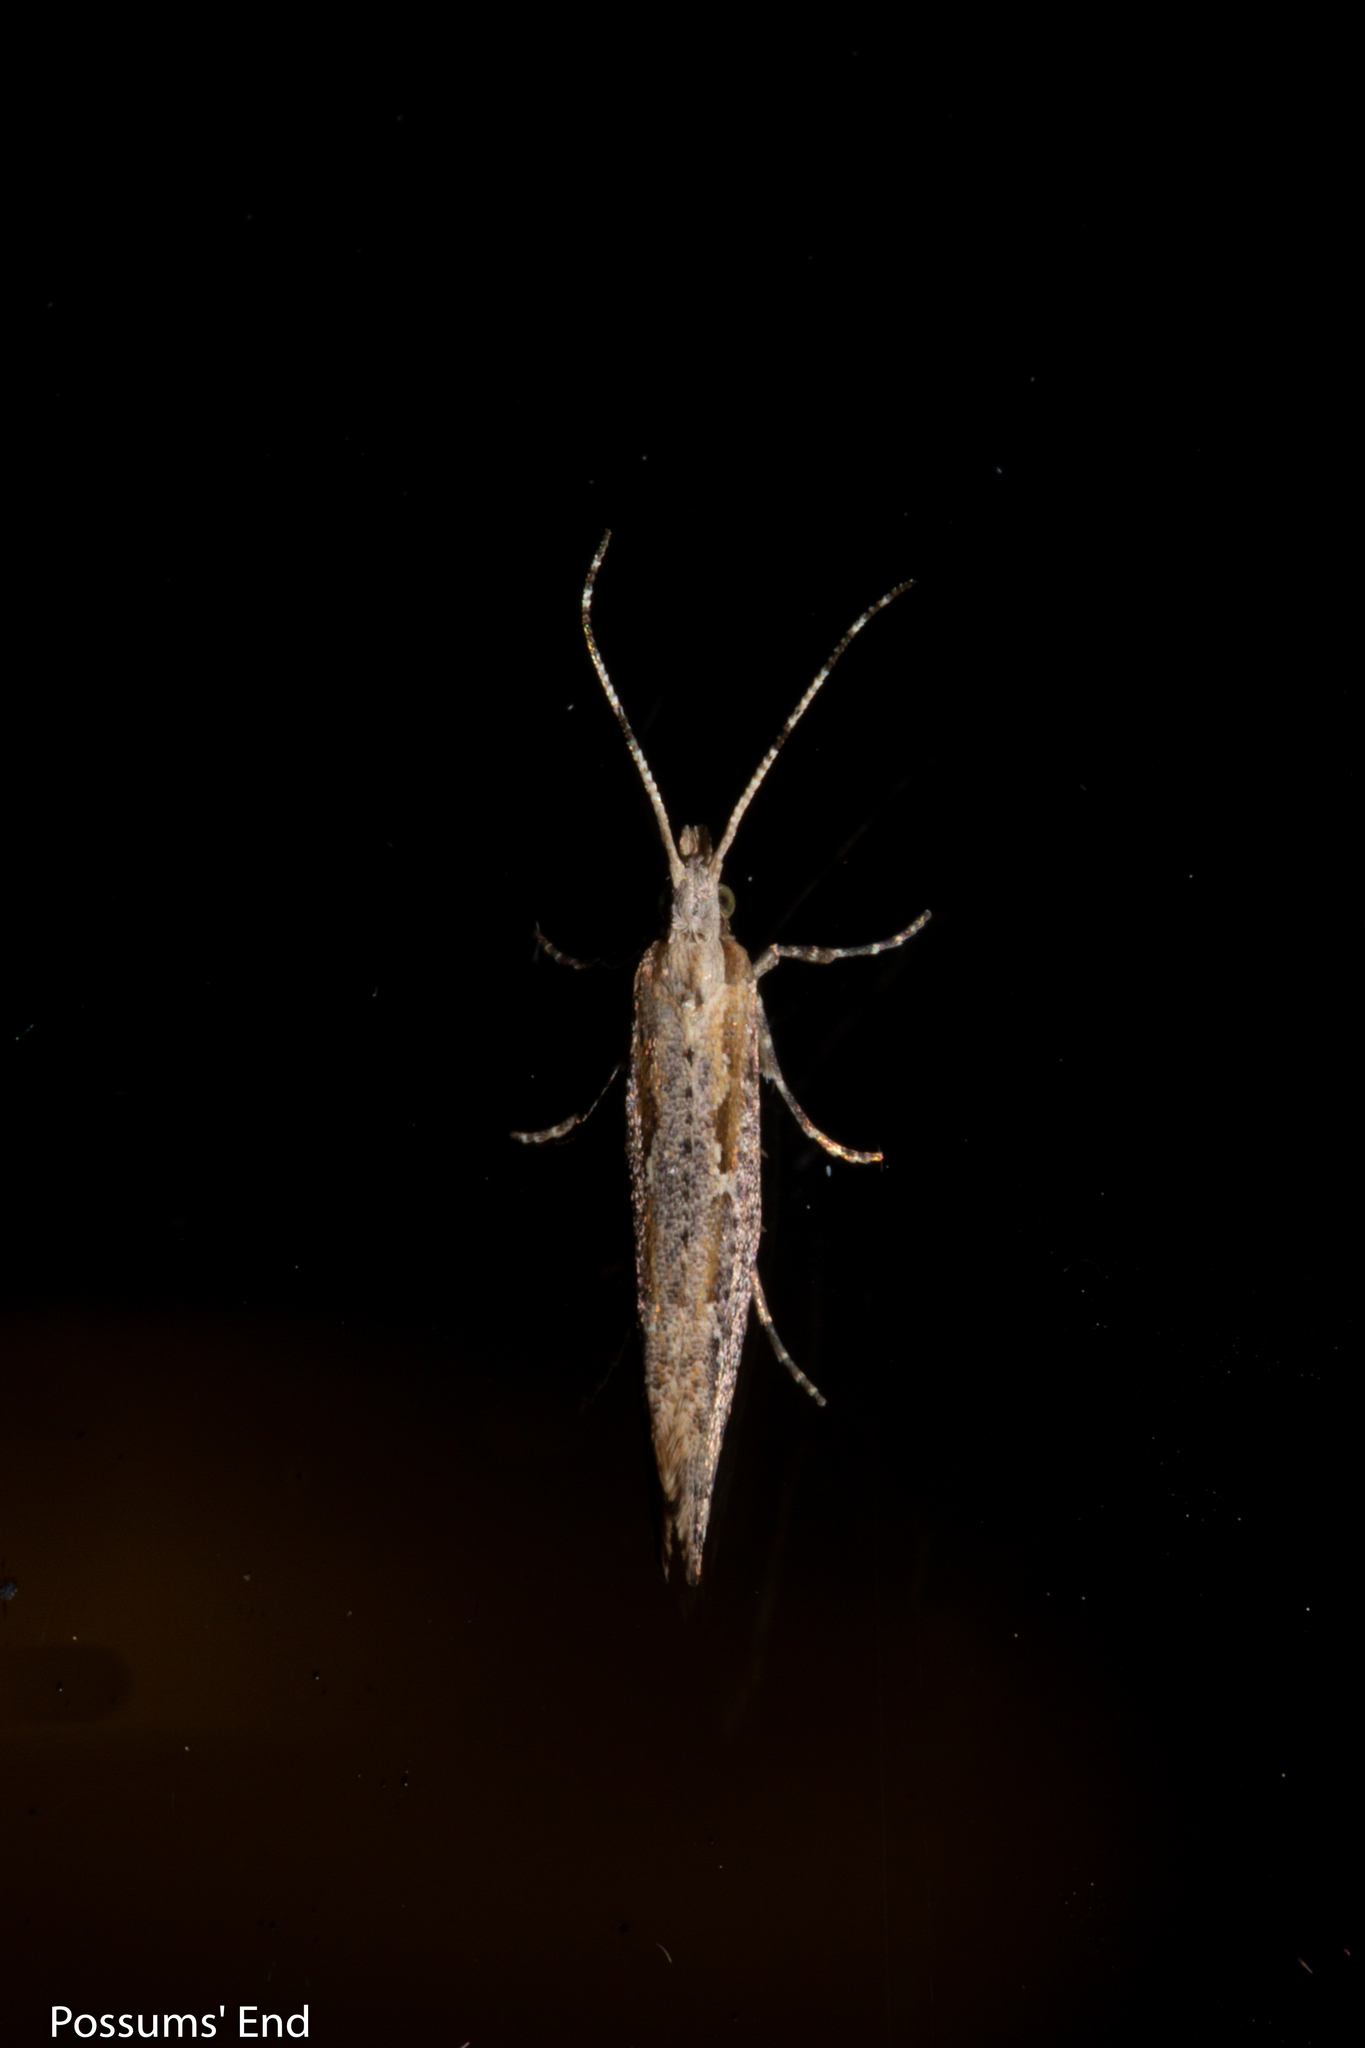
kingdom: Animalia
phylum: Arthropoda
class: Insecta
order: Lepidoptera
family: Plutellidae
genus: Plutella
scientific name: Plutella xylostella
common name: Diamond-back moth
